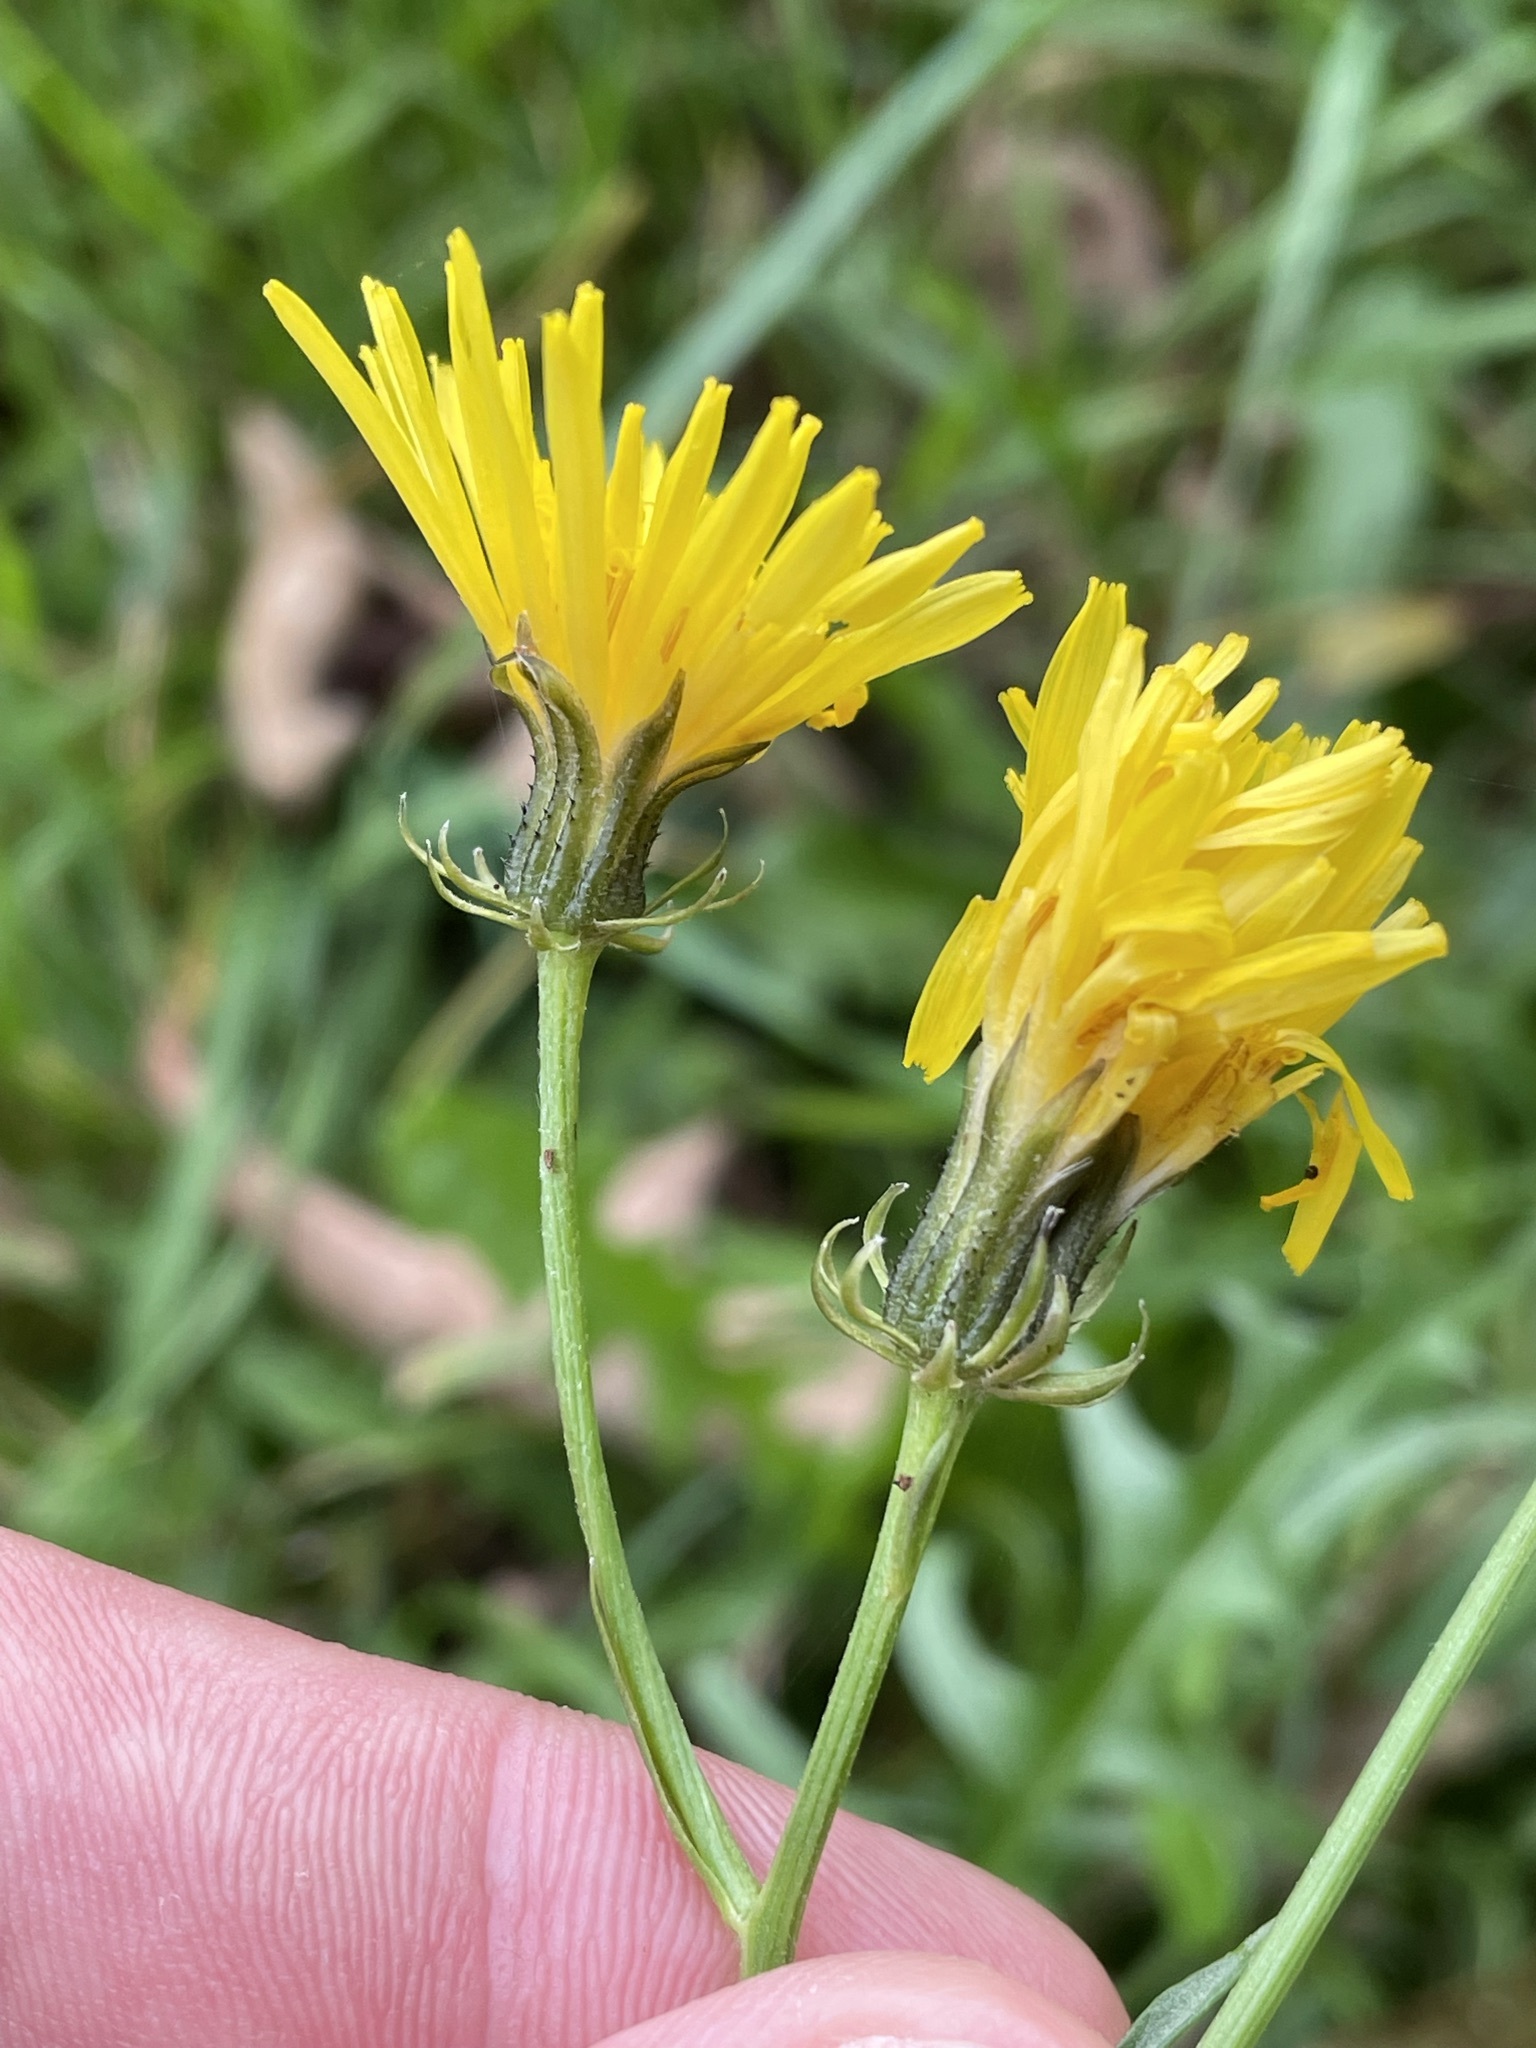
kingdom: Plantae
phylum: Tracheophyta
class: Magnoliopsida
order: Asterales
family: Asteraceae
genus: Crepis
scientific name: Crepis biennis
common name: Rough hawk's-beard
